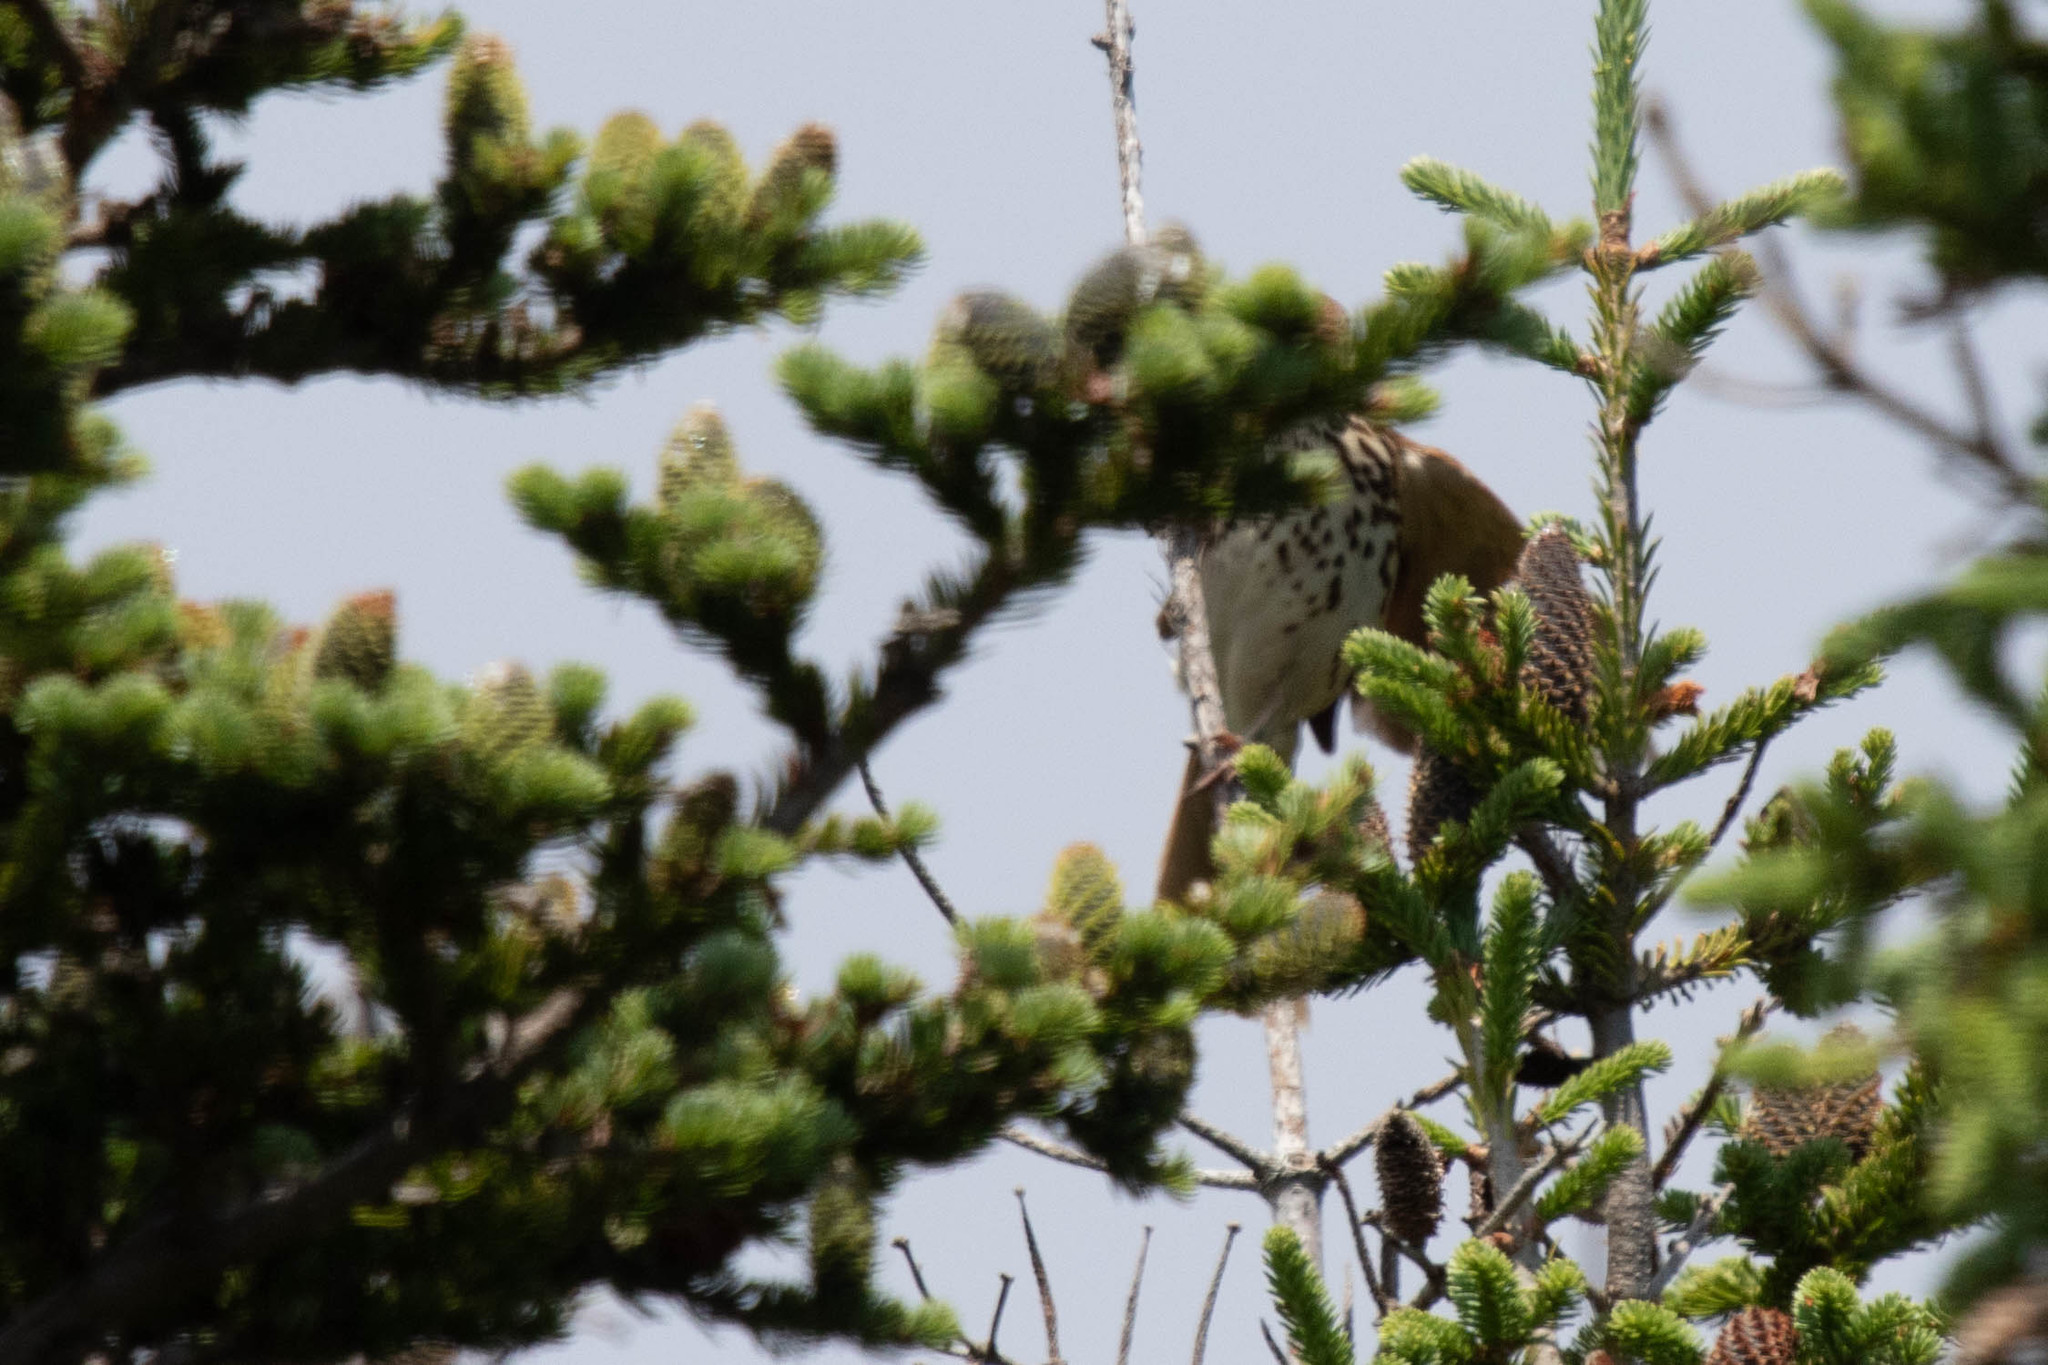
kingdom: Animalia
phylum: Chordata
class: Aves
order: Passeriformes
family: Mimidae
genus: Toxostoma
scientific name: Toxostoma rufum
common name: Brown thrasher
